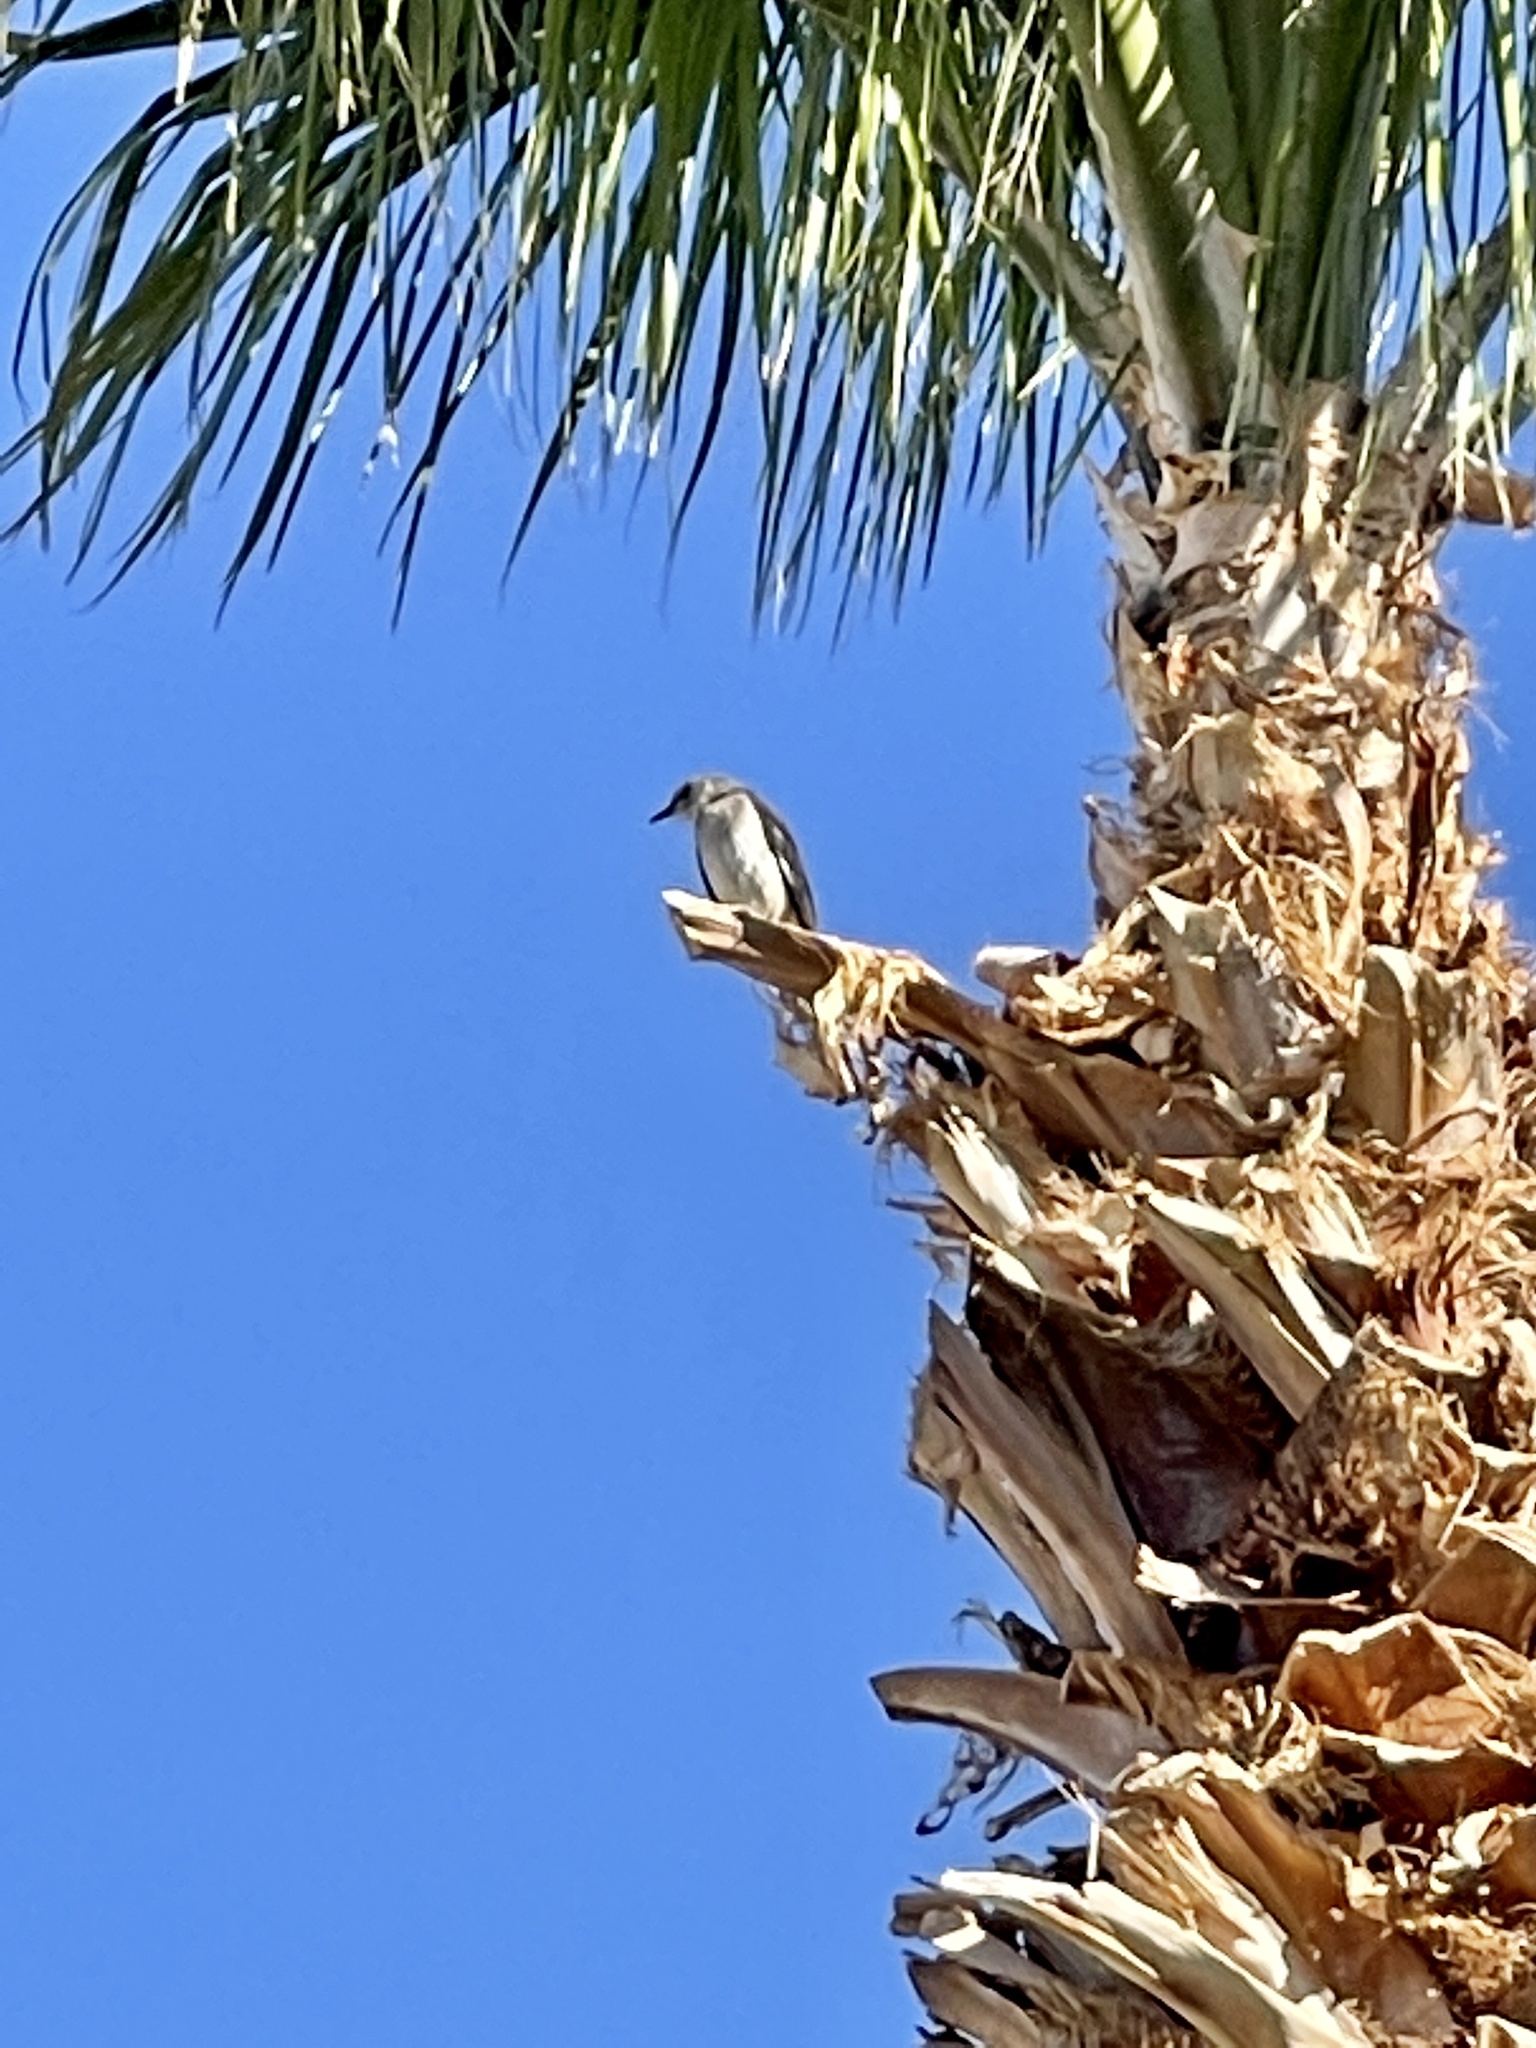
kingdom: Animalia
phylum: Chordata
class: Aves
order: Passeriformes
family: Mimidae
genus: Mimus
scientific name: Mimus polyglottos
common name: Northern mockingbird
